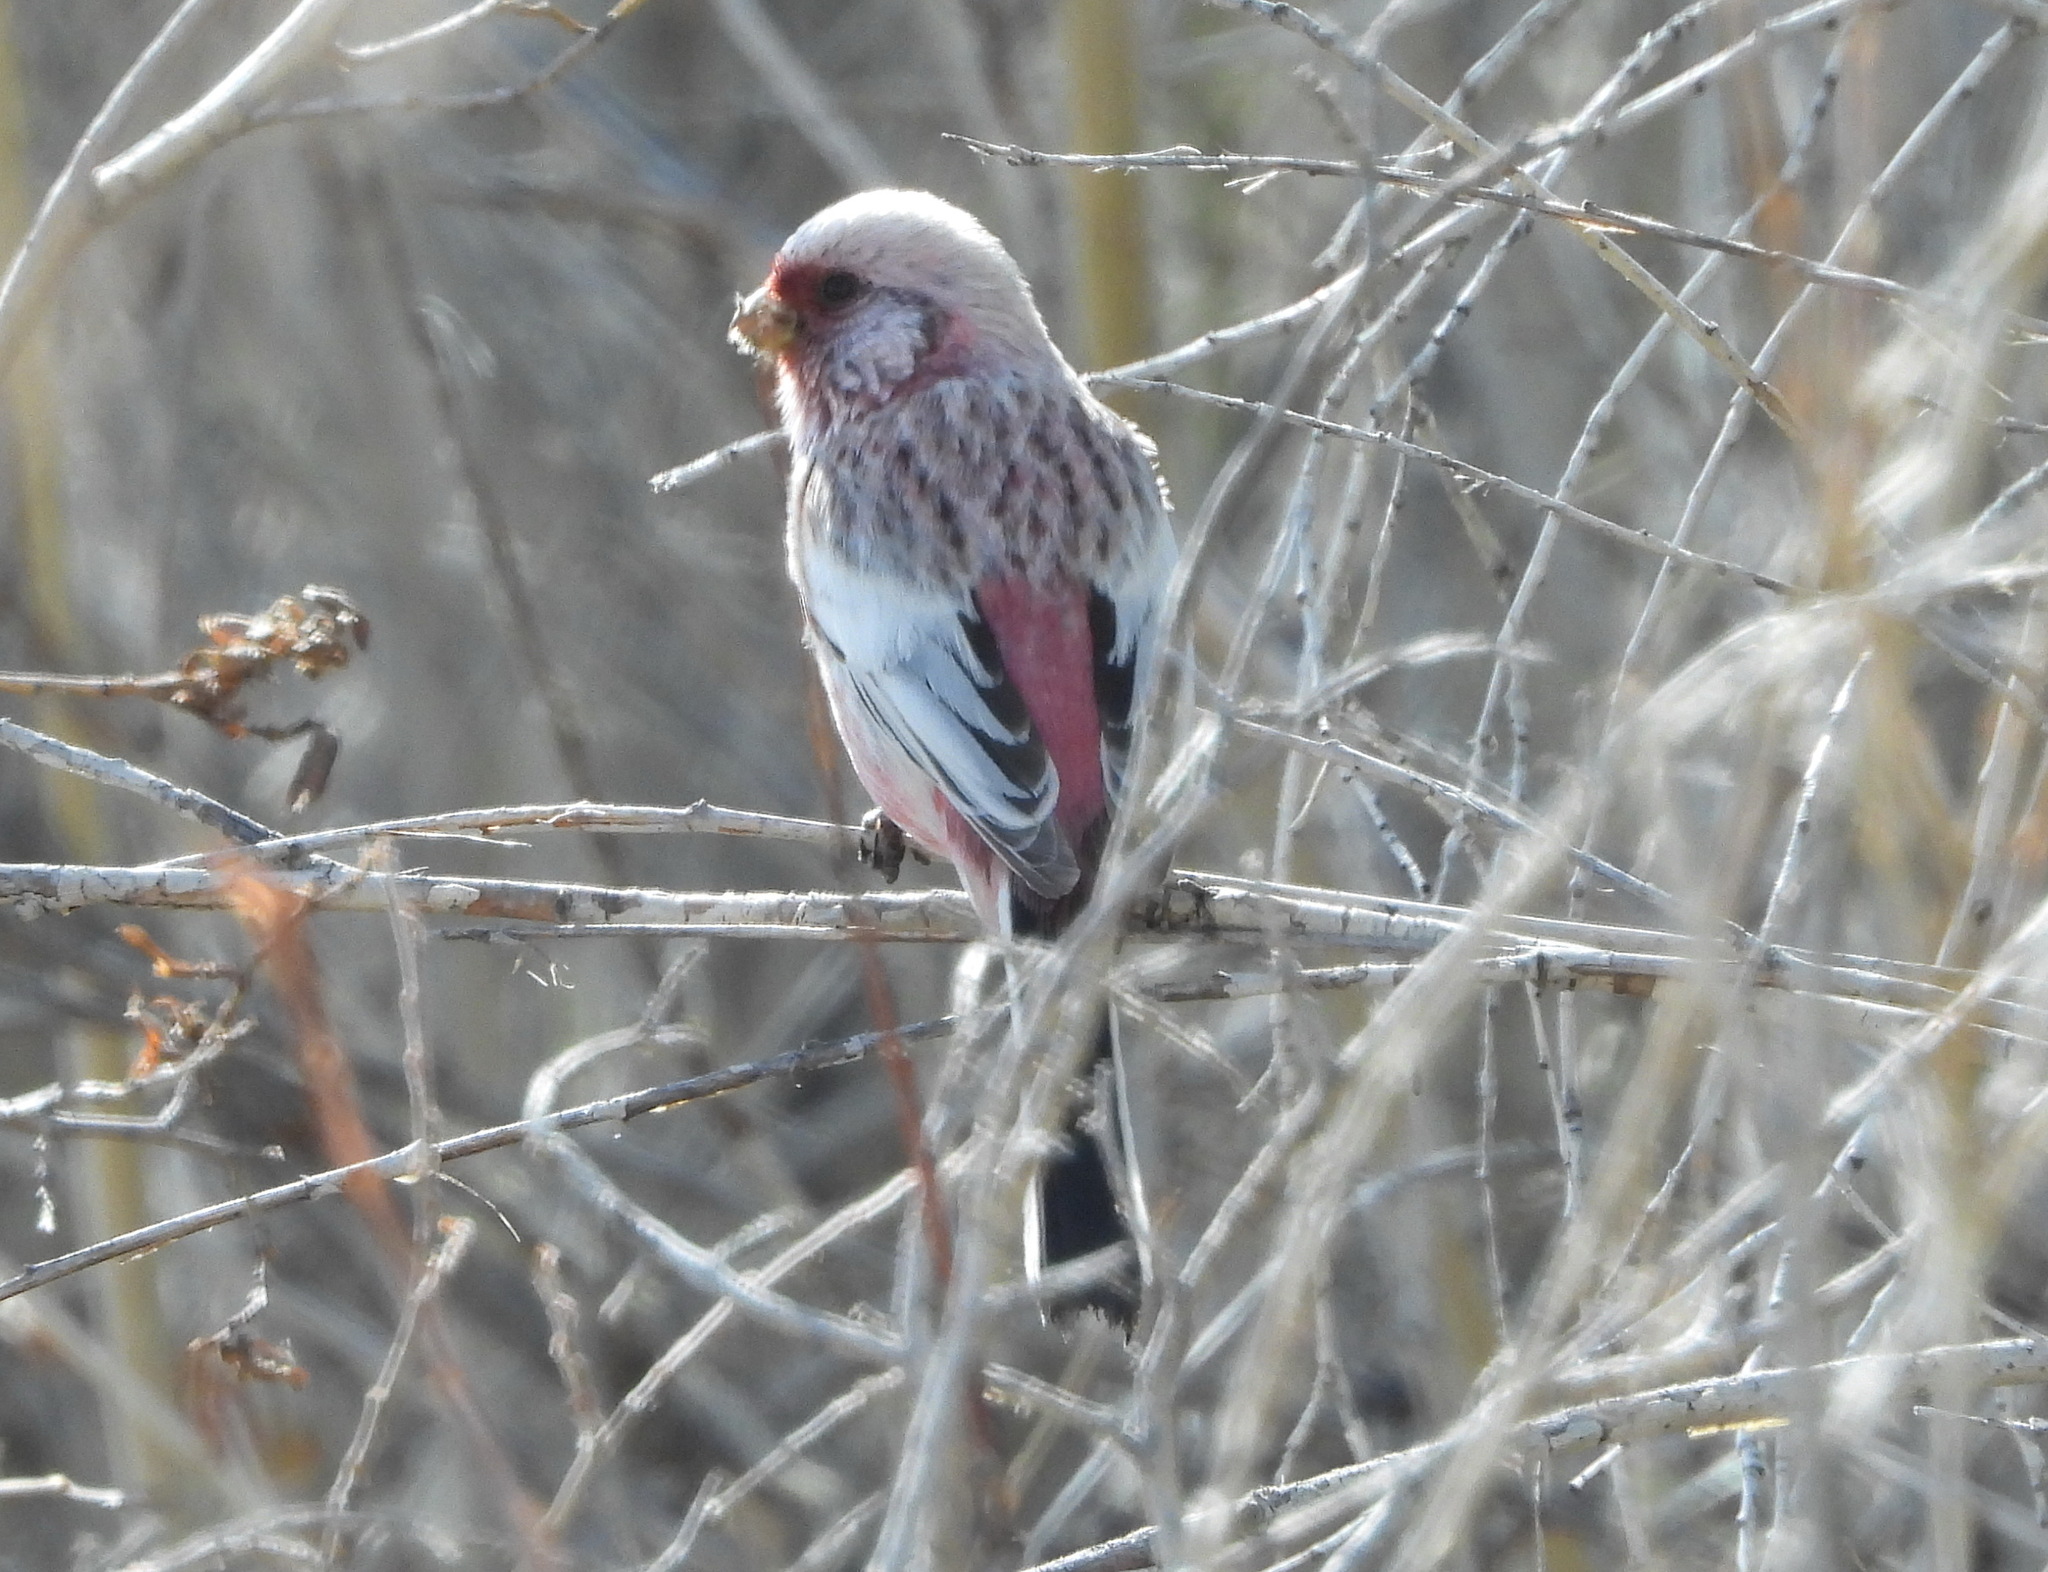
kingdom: Animalia
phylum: Chordata
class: Aves
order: Passeriformes
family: Fringillidae
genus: Carpodacus
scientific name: Carpodacus sibiricus
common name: Long-tailed rosefinch
